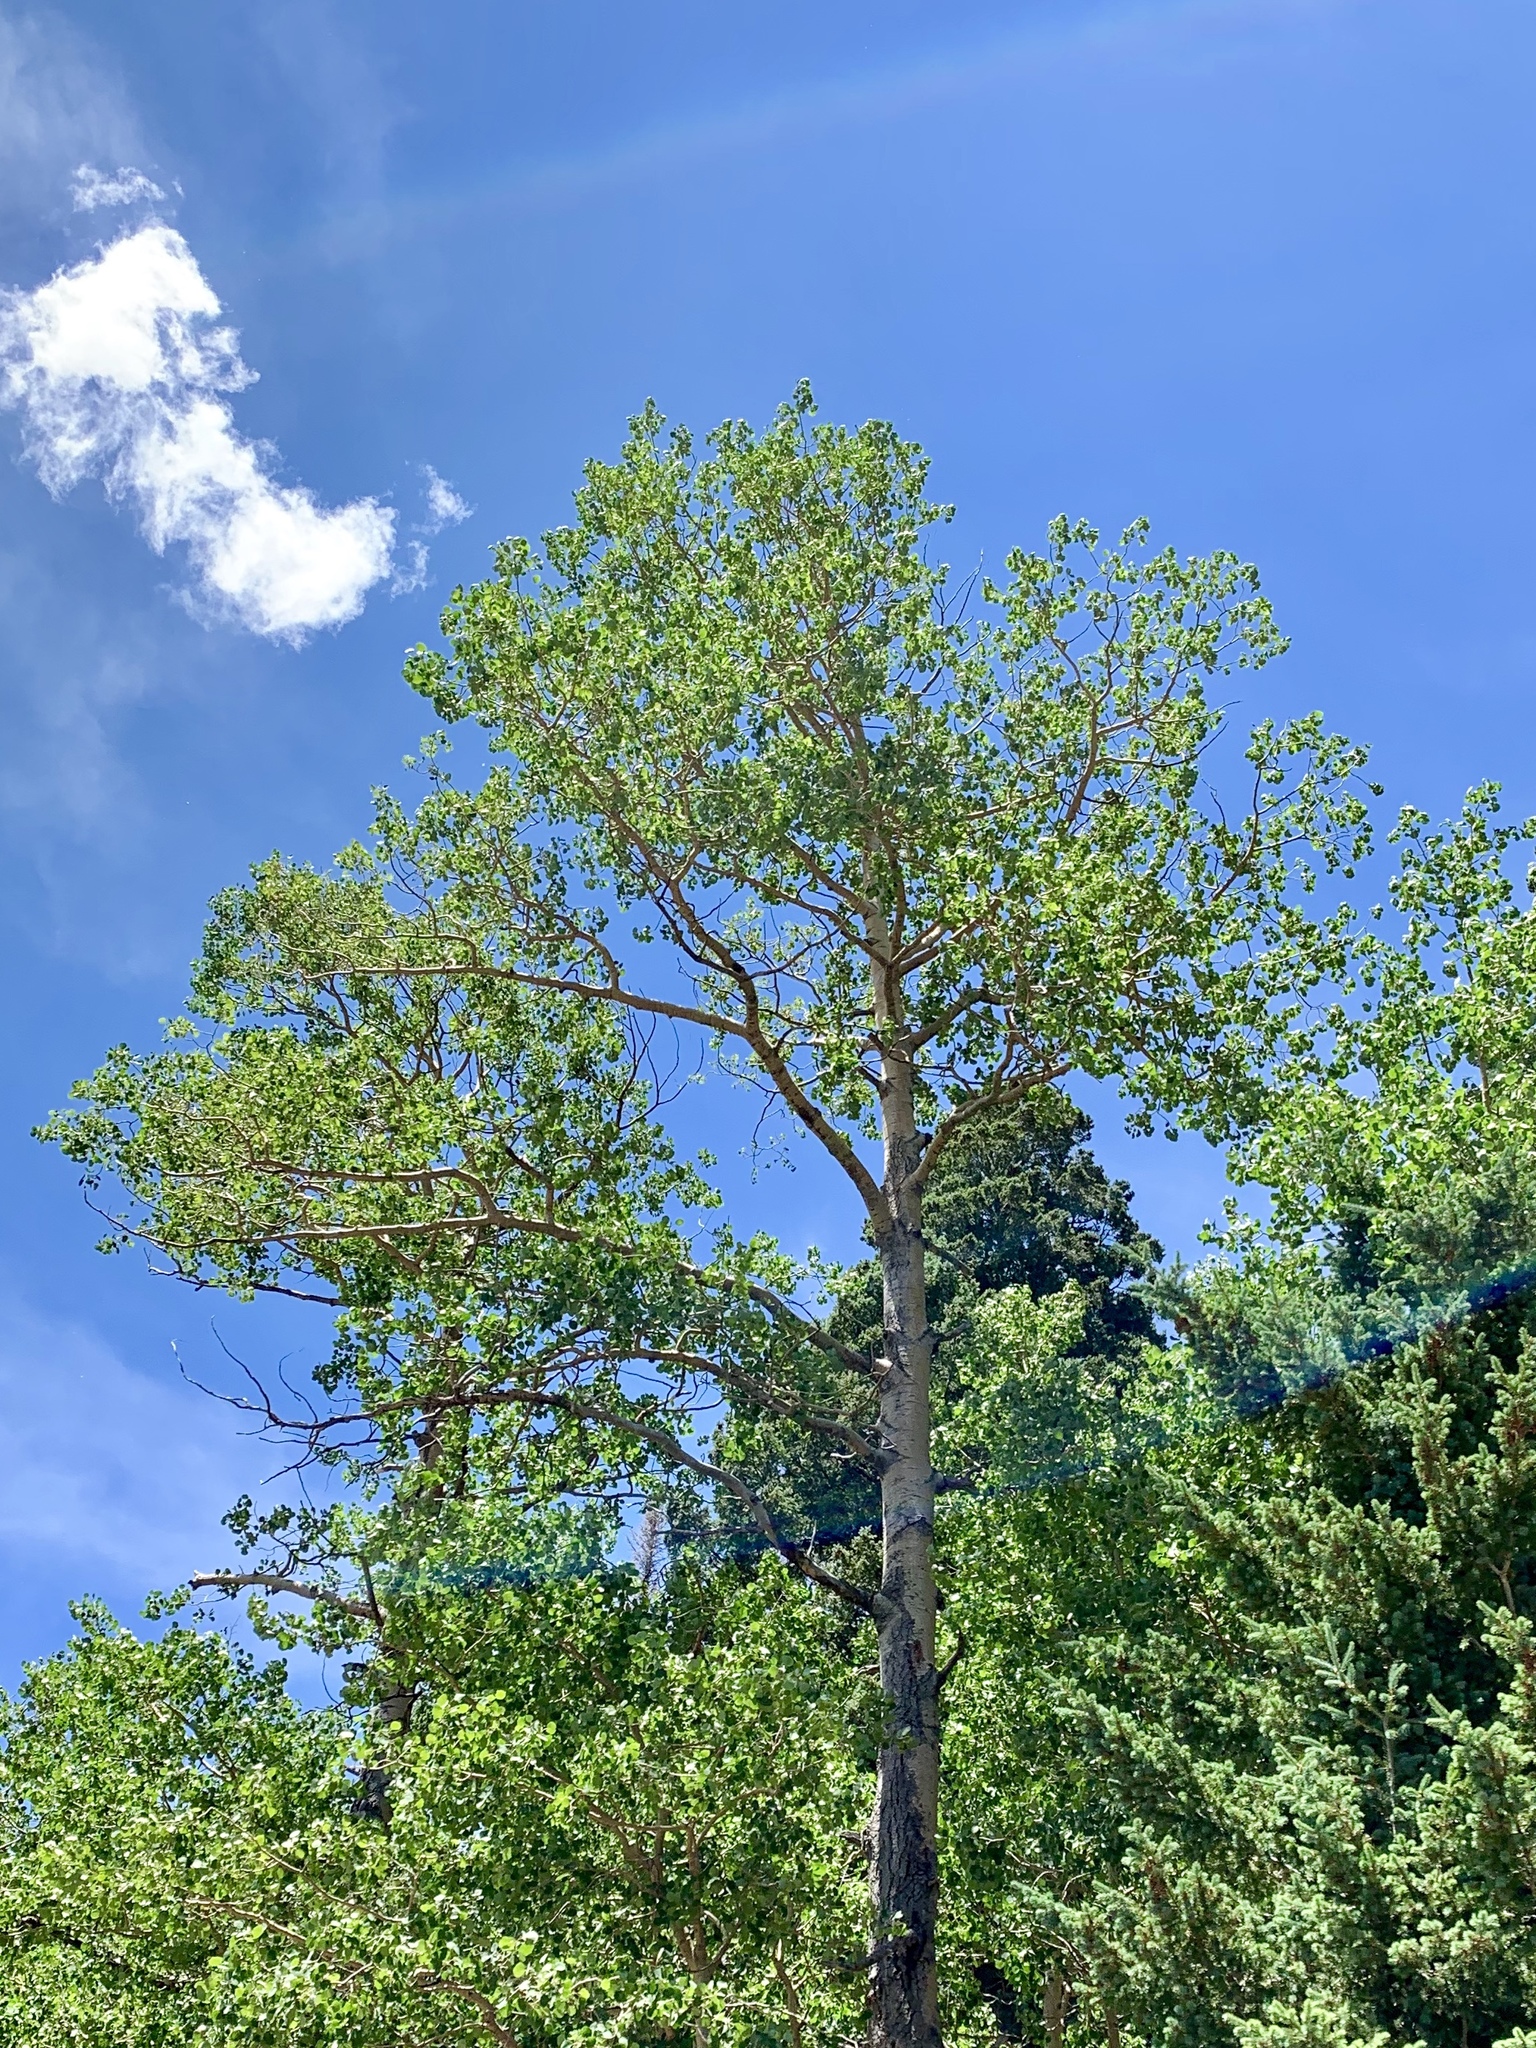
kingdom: Plantae
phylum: Tracheophyta
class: Magnoliopsida
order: Malpighiales
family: Salicaceae
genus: Populus
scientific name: Populus tremuloides
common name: Quaking aspen
